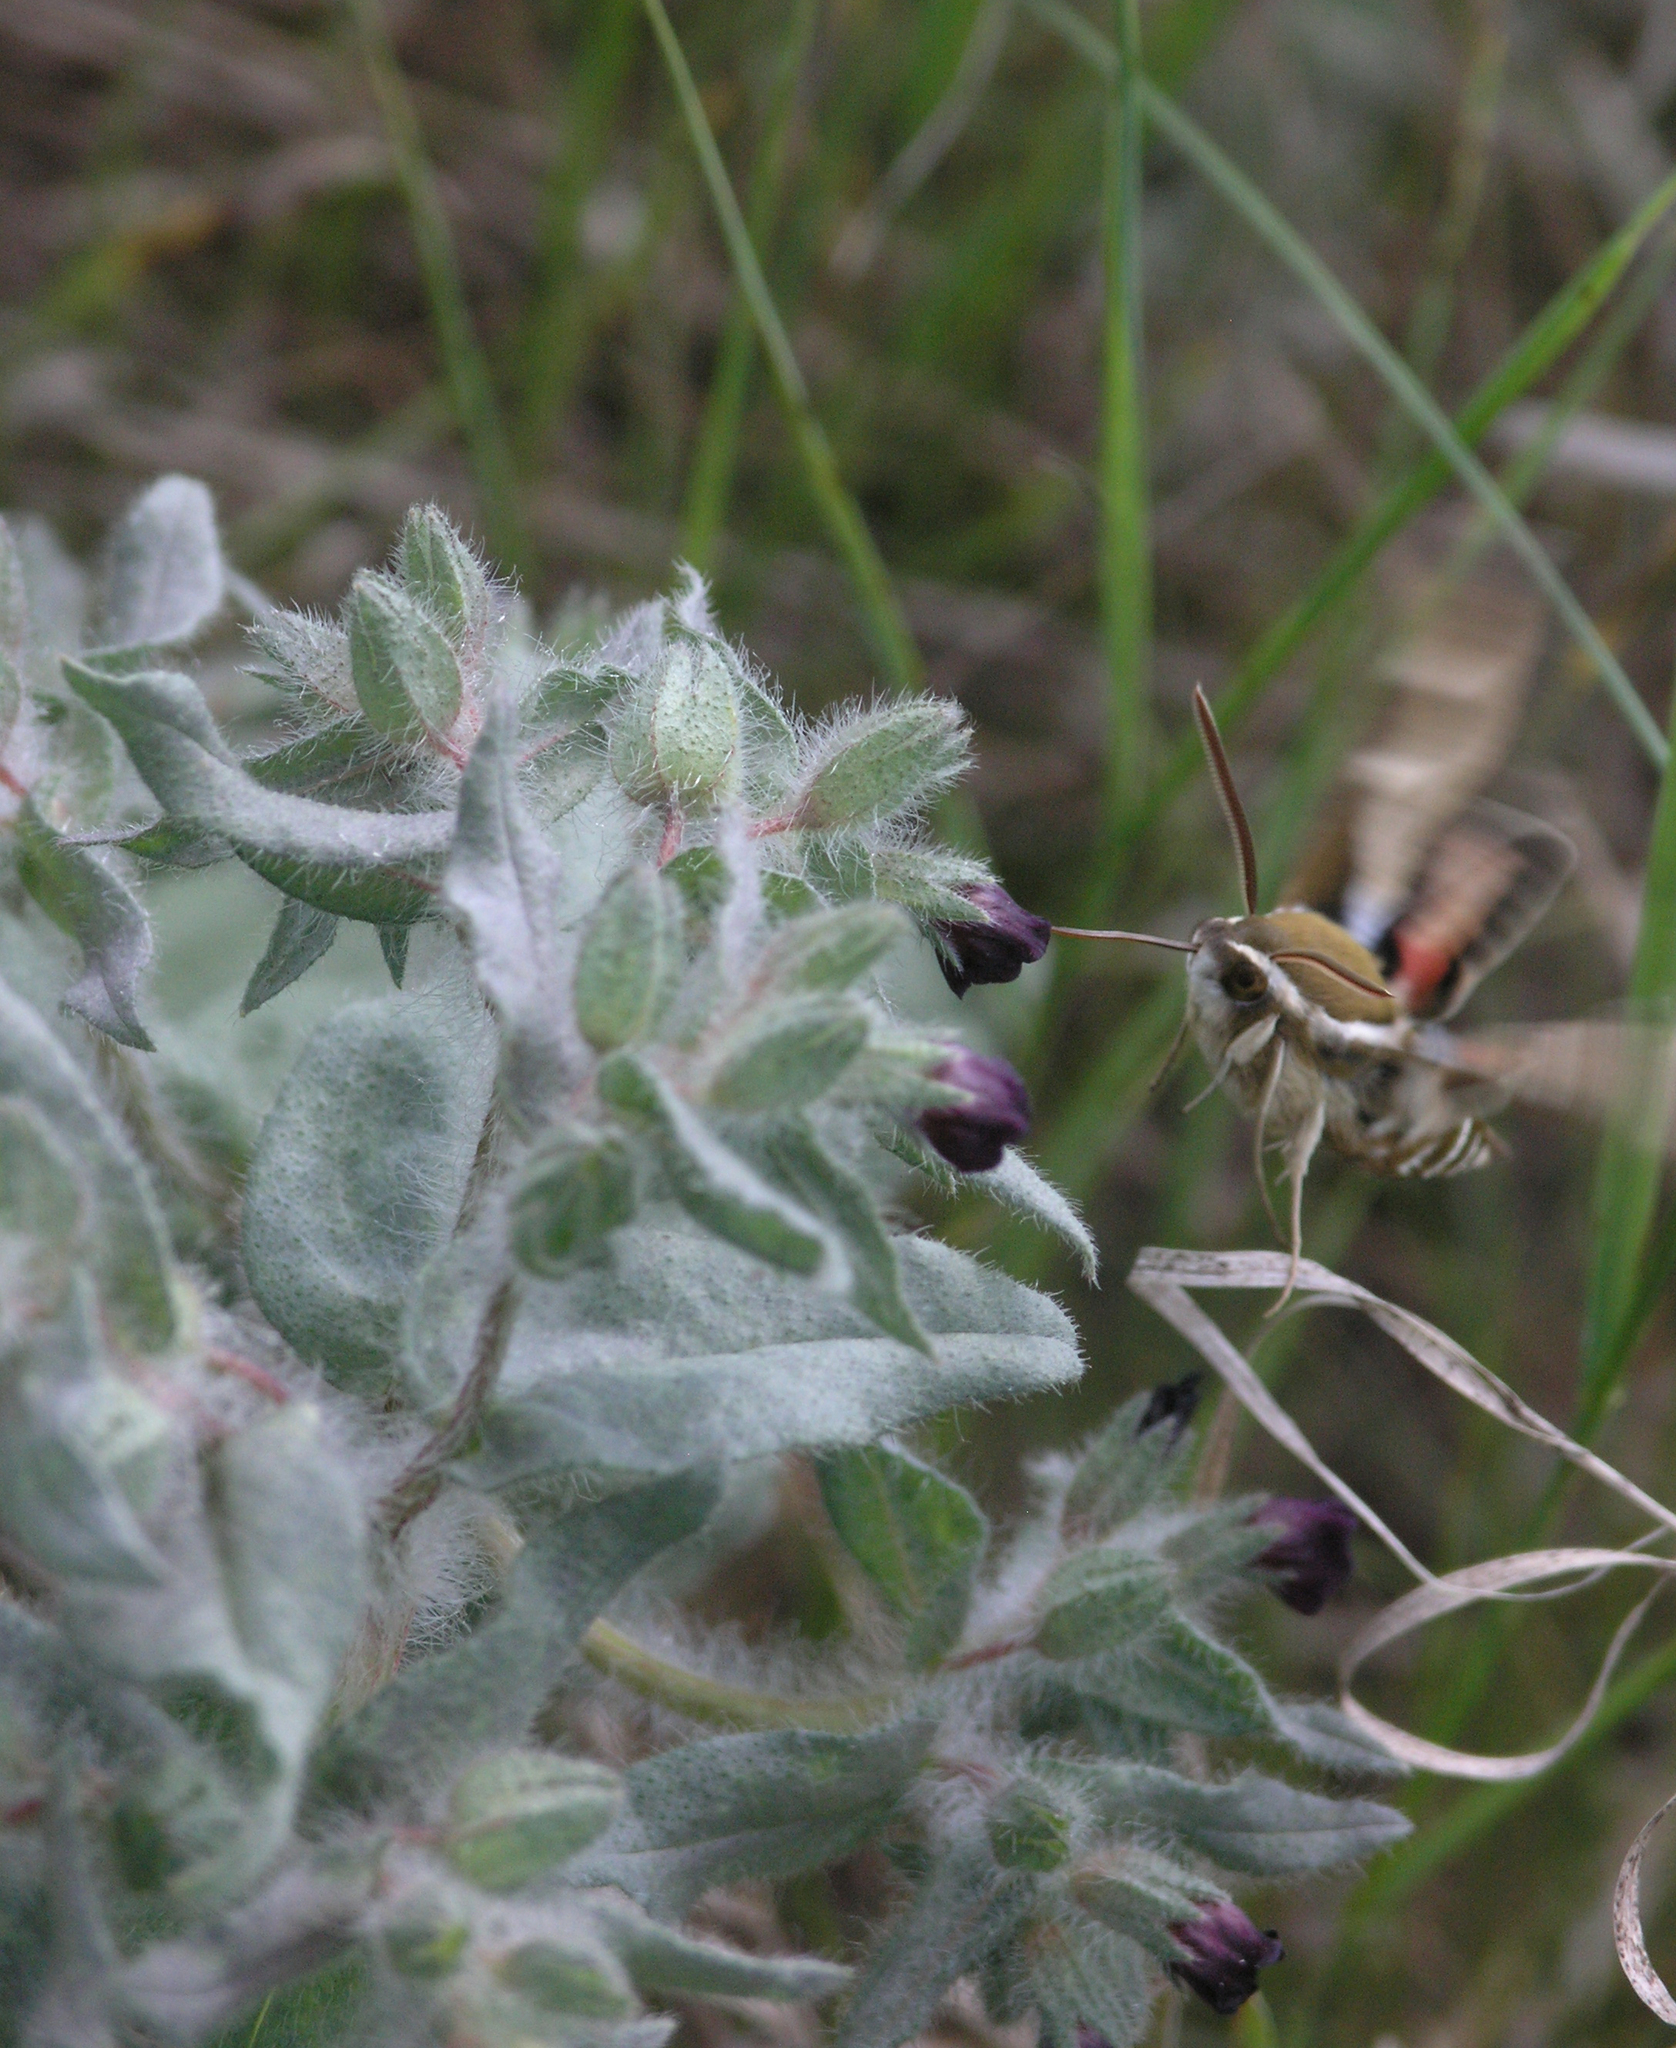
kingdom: Animalia
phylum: Arthropoda
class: Insecta
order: Lepidoptera
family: Sphingidae
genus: Hyles
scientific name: Hyles gallii
